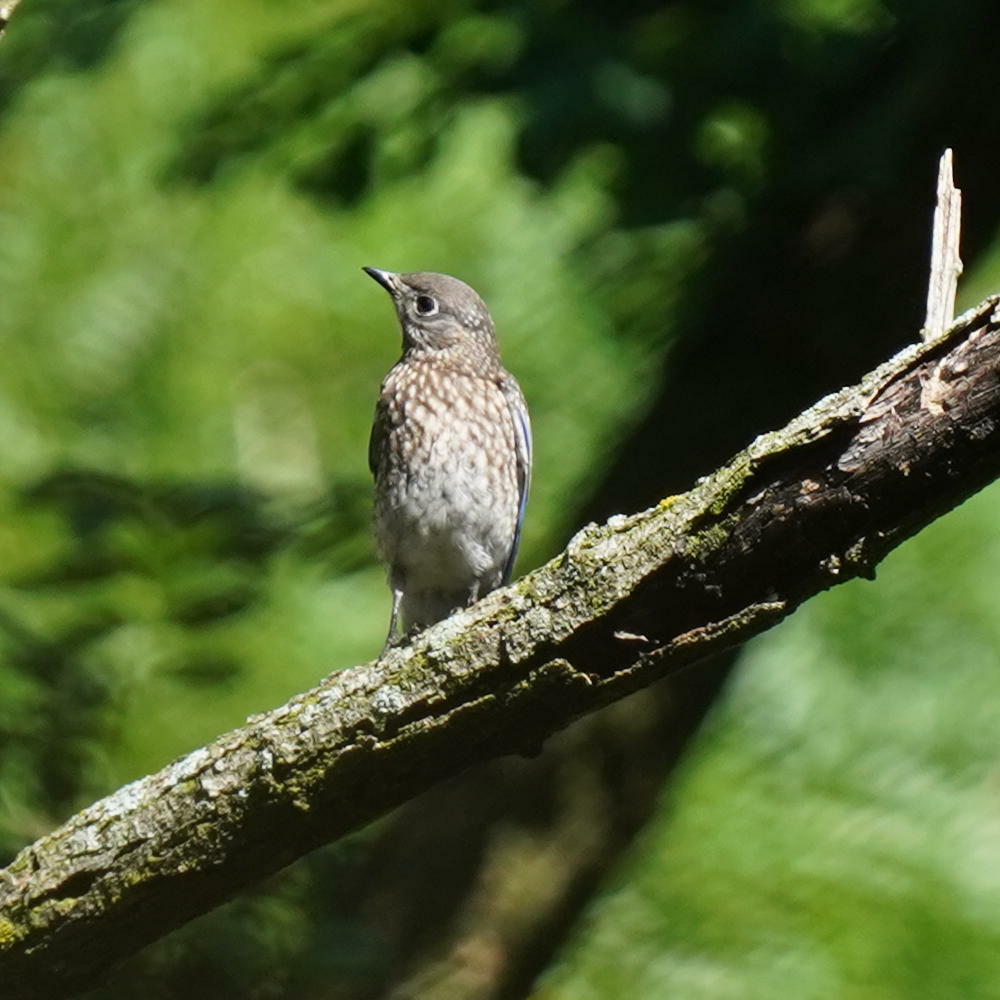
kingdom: Animalia
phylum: Chordata
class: Aves
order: Passeriformes
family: Turdidae
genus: Sialia
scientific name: Sialia sialis
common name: Eastern bluebird
